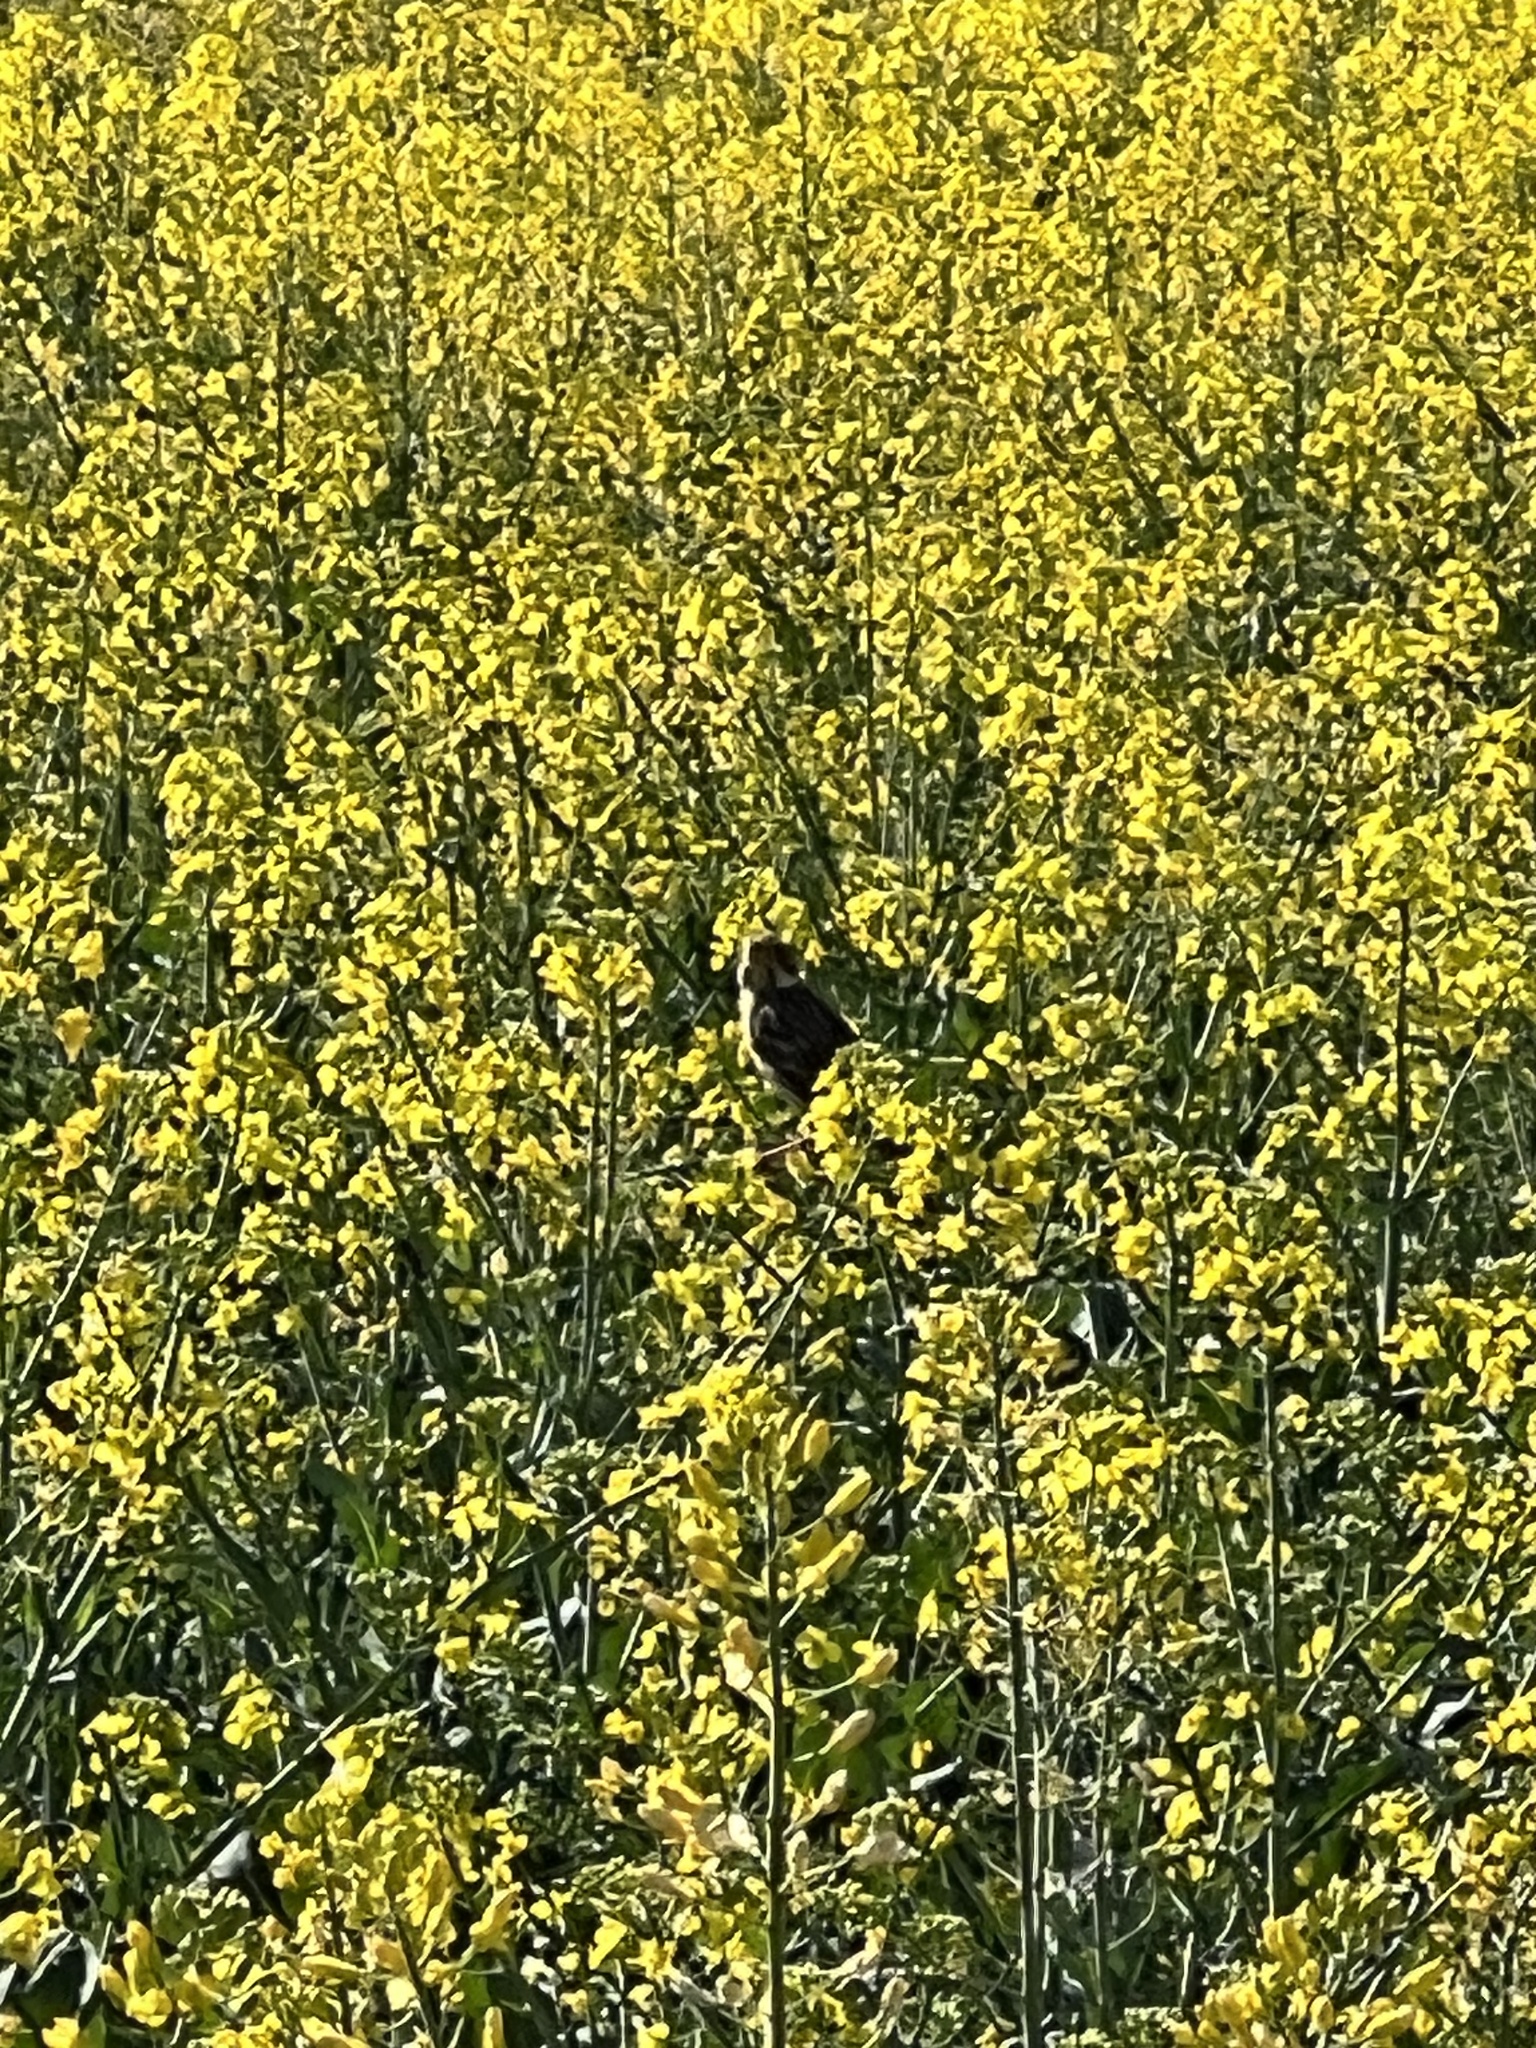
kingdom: Animalia
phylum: Chordata
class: Aves
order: Passeriformes
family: Emberizidae
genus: Emberiza
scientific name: Emberiza calandra
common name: Corn bunting
